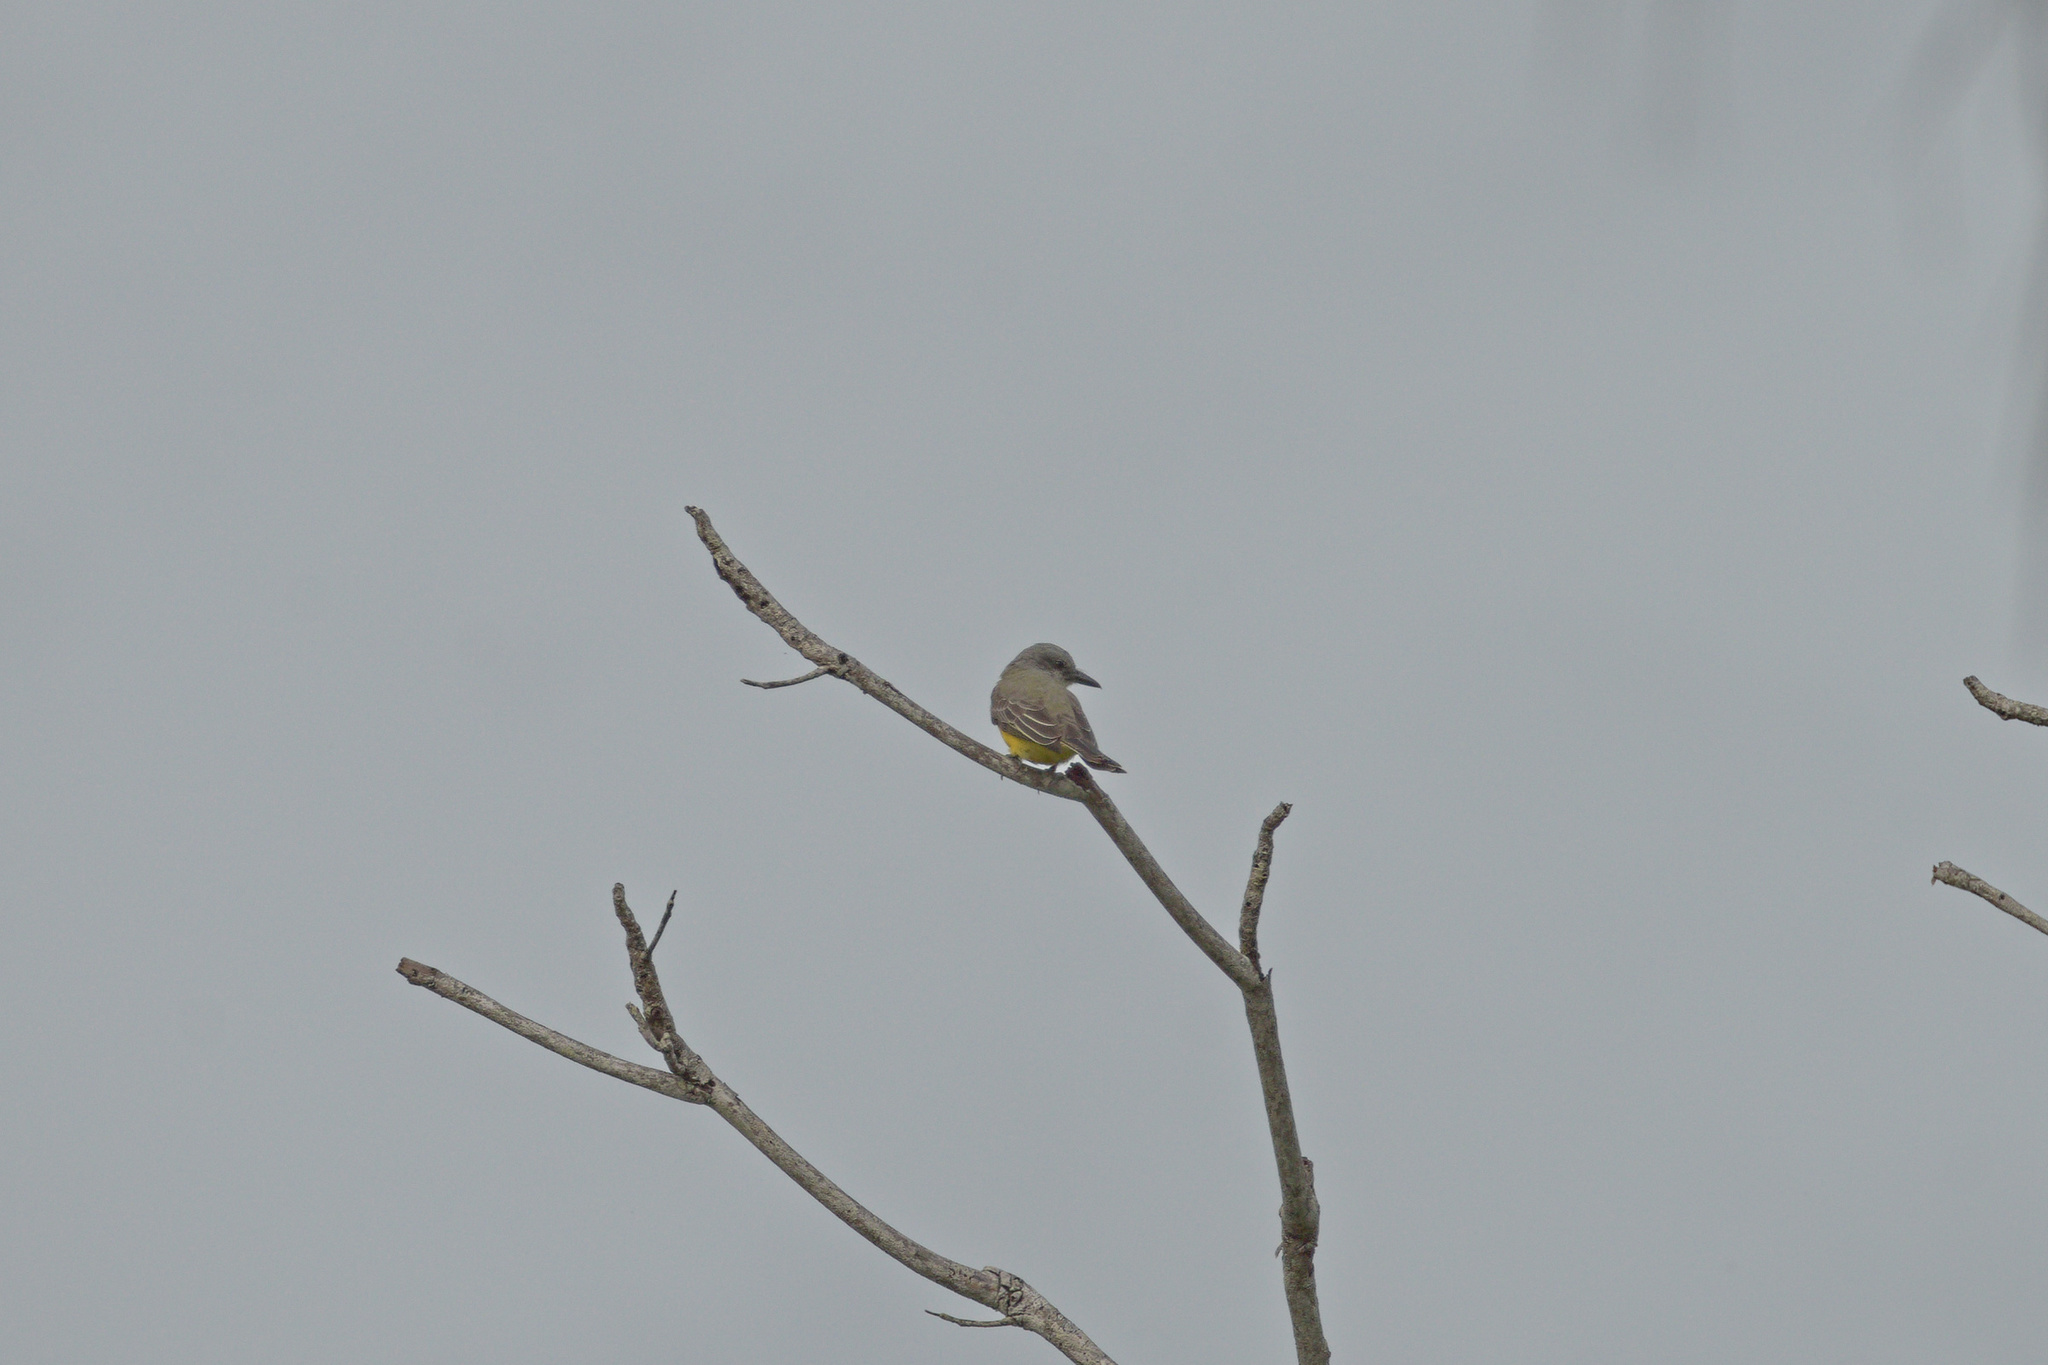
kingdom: Animalia
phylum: Chordata
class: Aves
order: Passeriformes
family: Tyrannidae
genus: Tyrannus
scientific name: Tyrannus melancholicus
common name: Tropical kingbird
